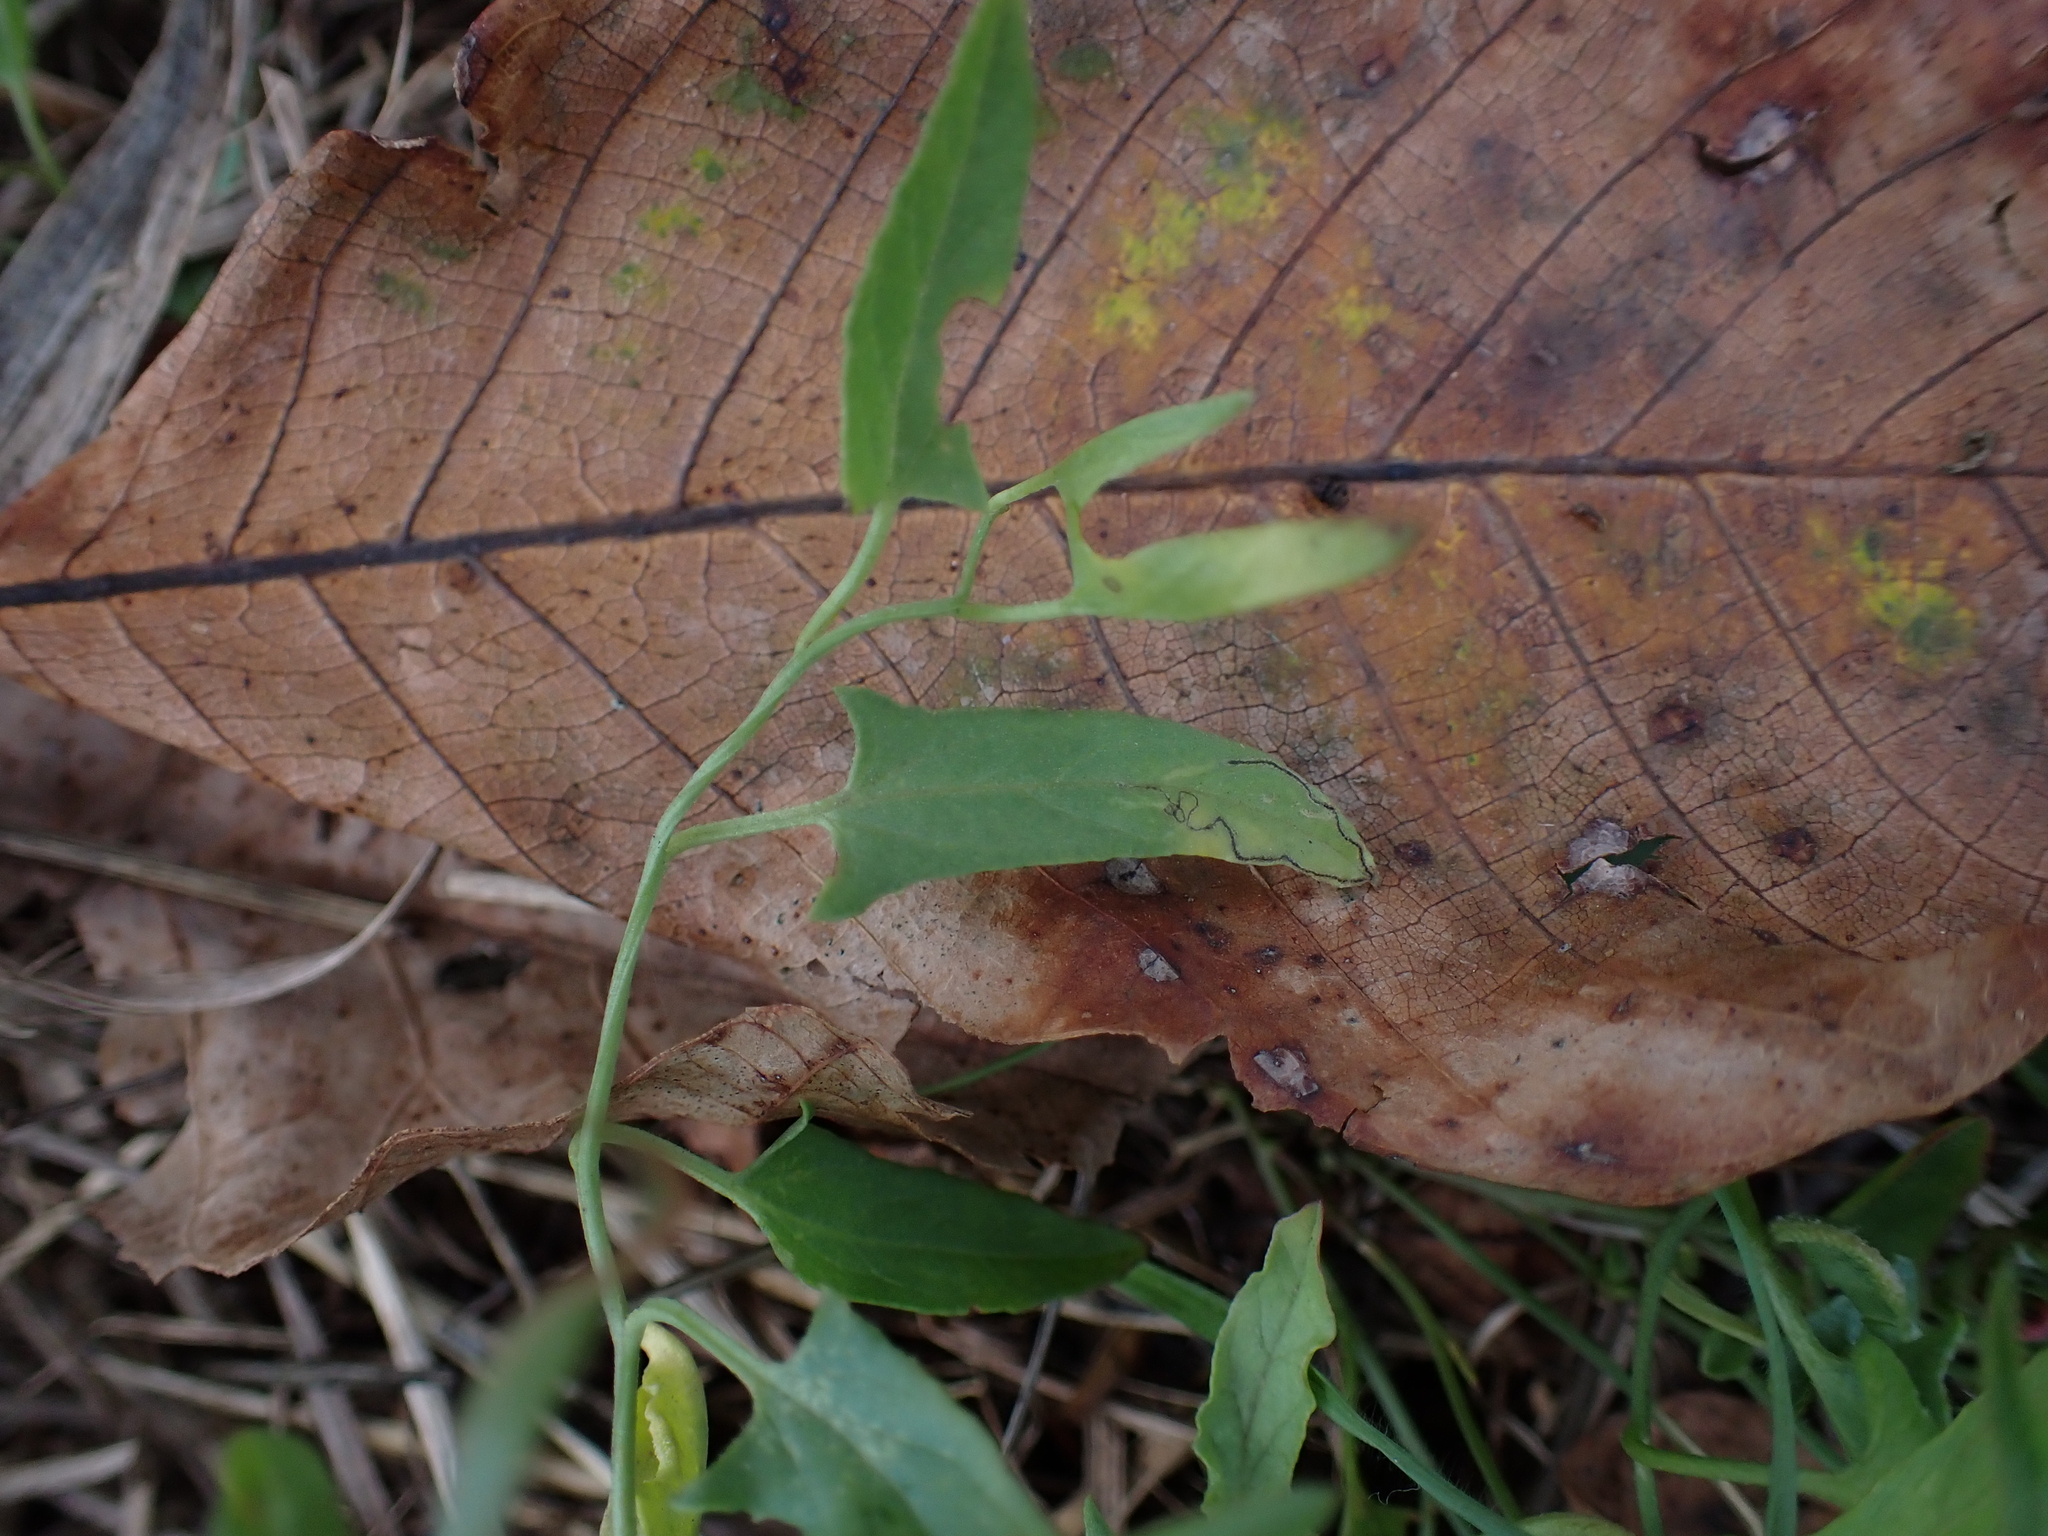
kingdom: Plantae
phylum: Tracheophyta
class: Magnoliopsida
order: Solanales
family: Convolvulaceae
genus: Convolvulus
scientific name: Convolvulus arvensis
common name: Field bindweed
